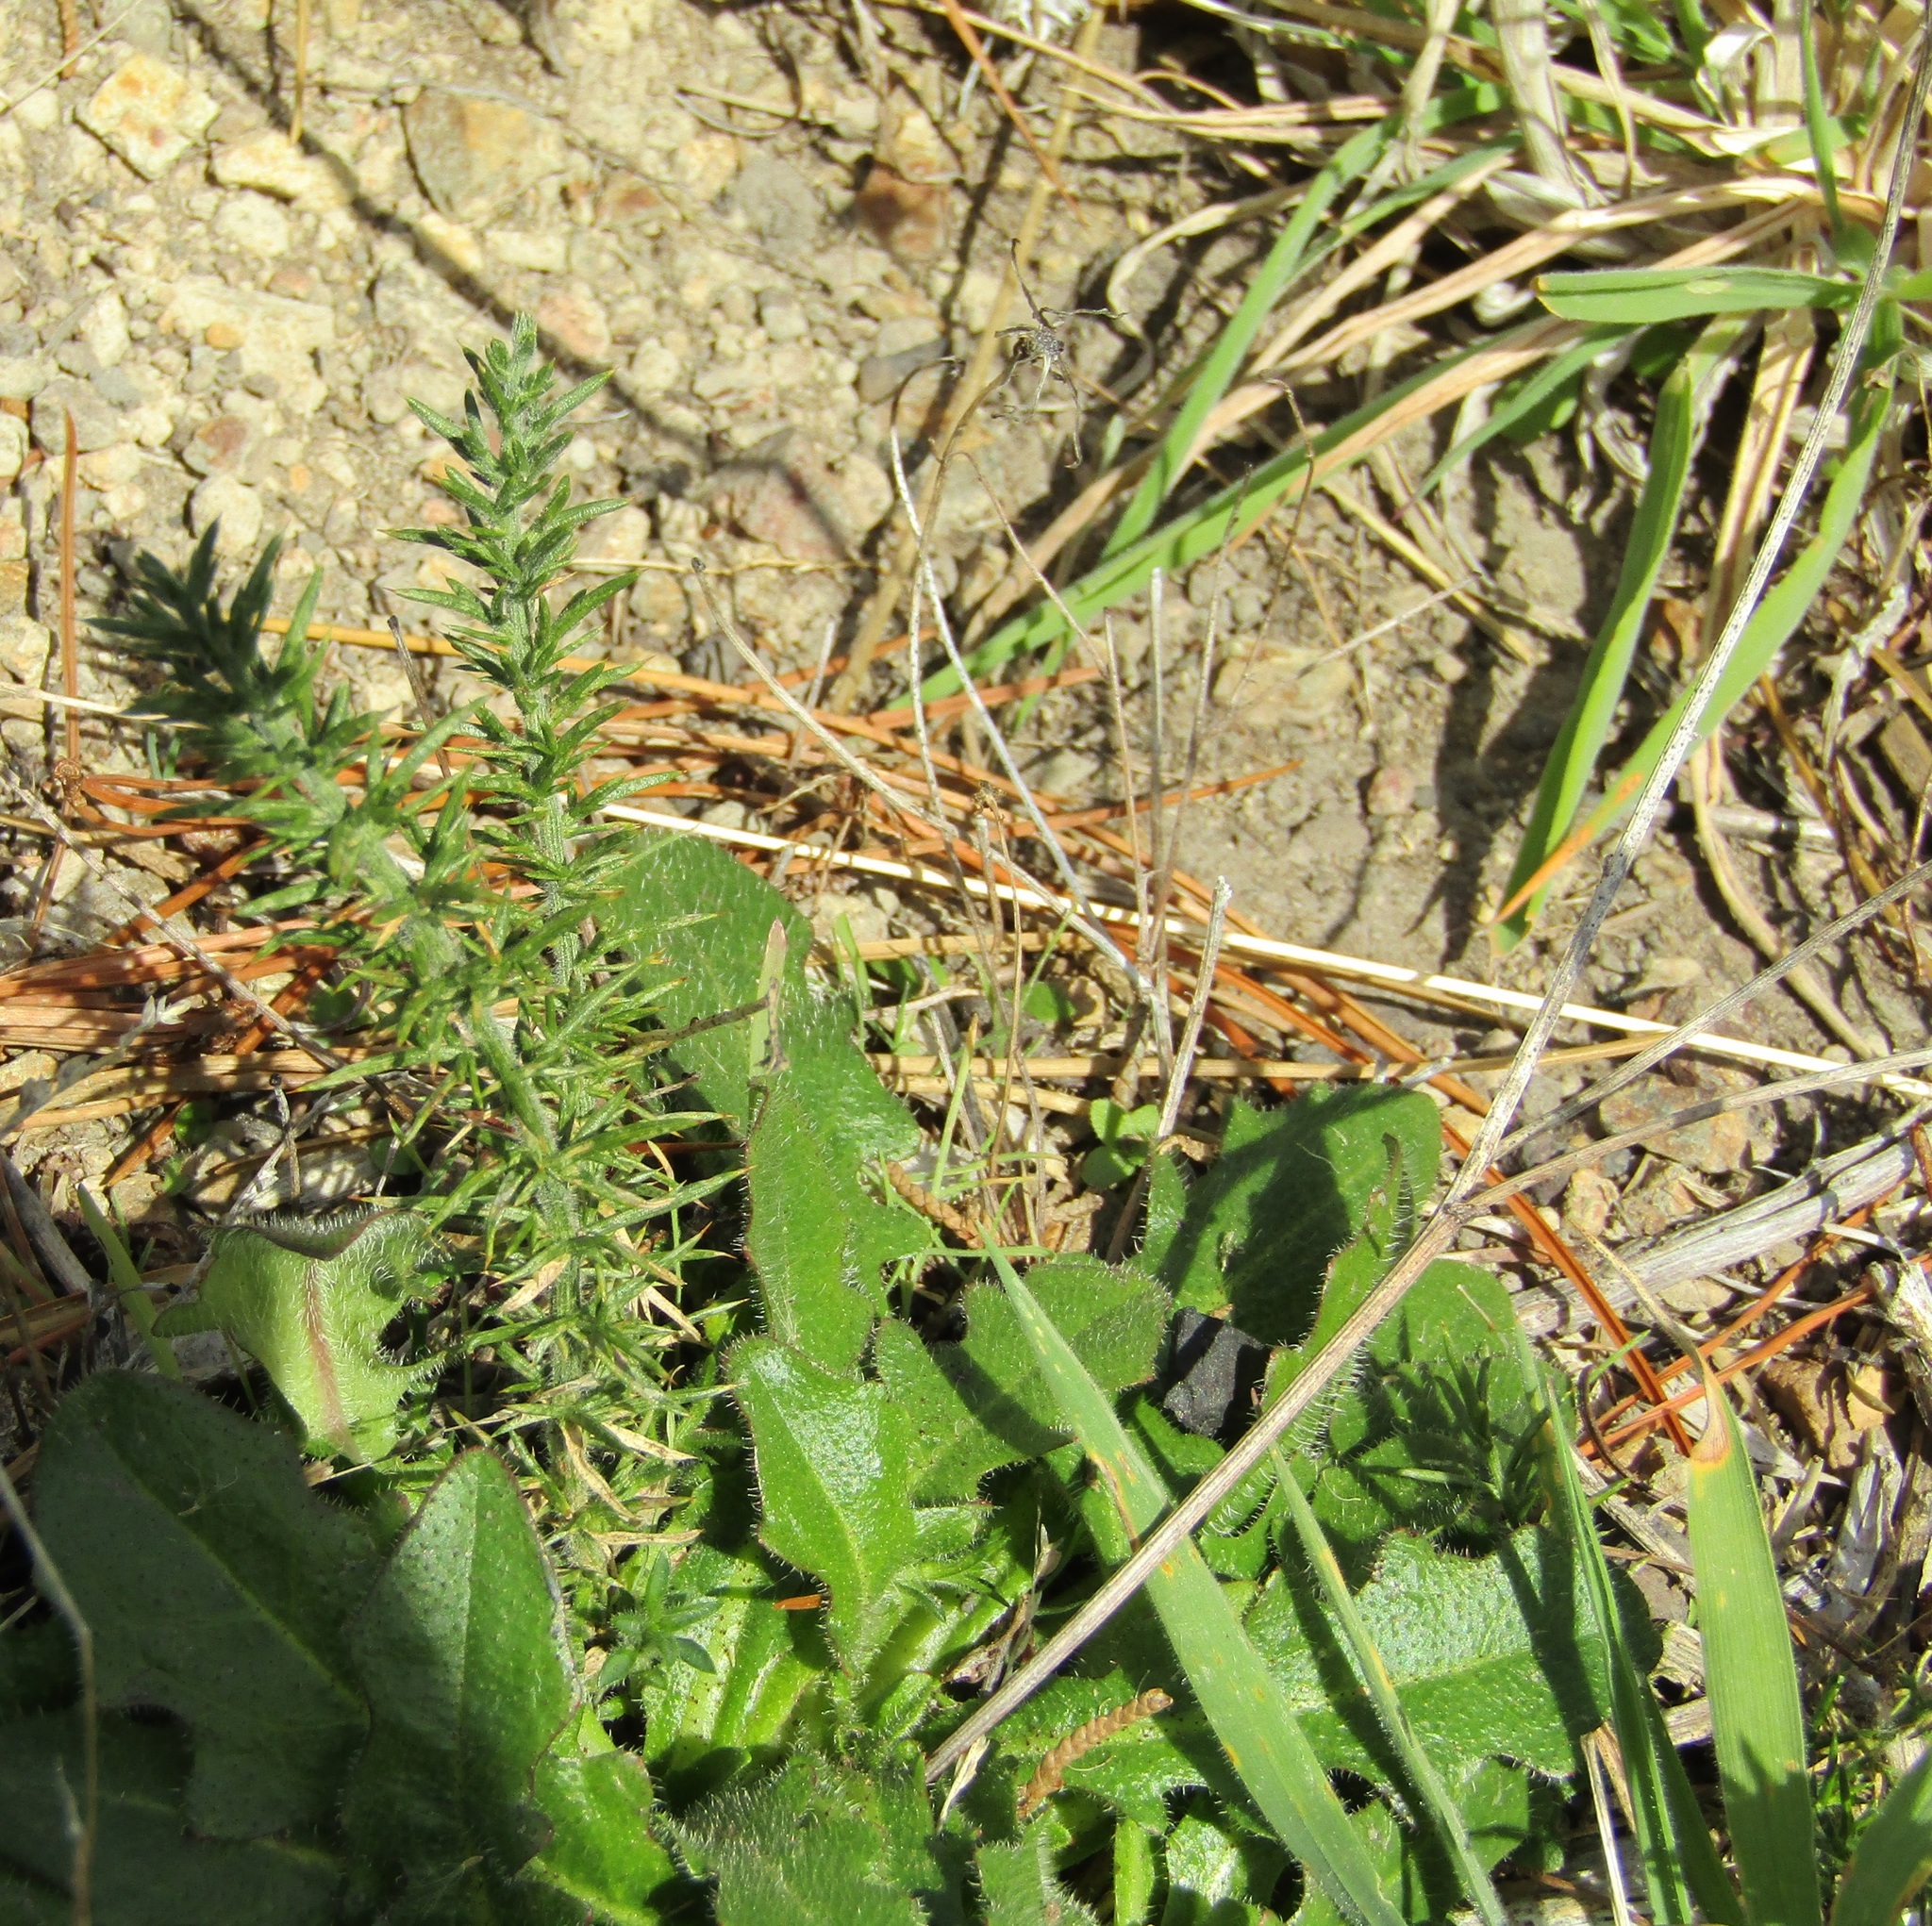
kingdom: Plantae
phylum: Tracheophyta
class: Magnoliopsida
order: Fabales
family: Fabaceae
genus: Ulex
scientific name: Ulex europaeus
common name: Common gorse
